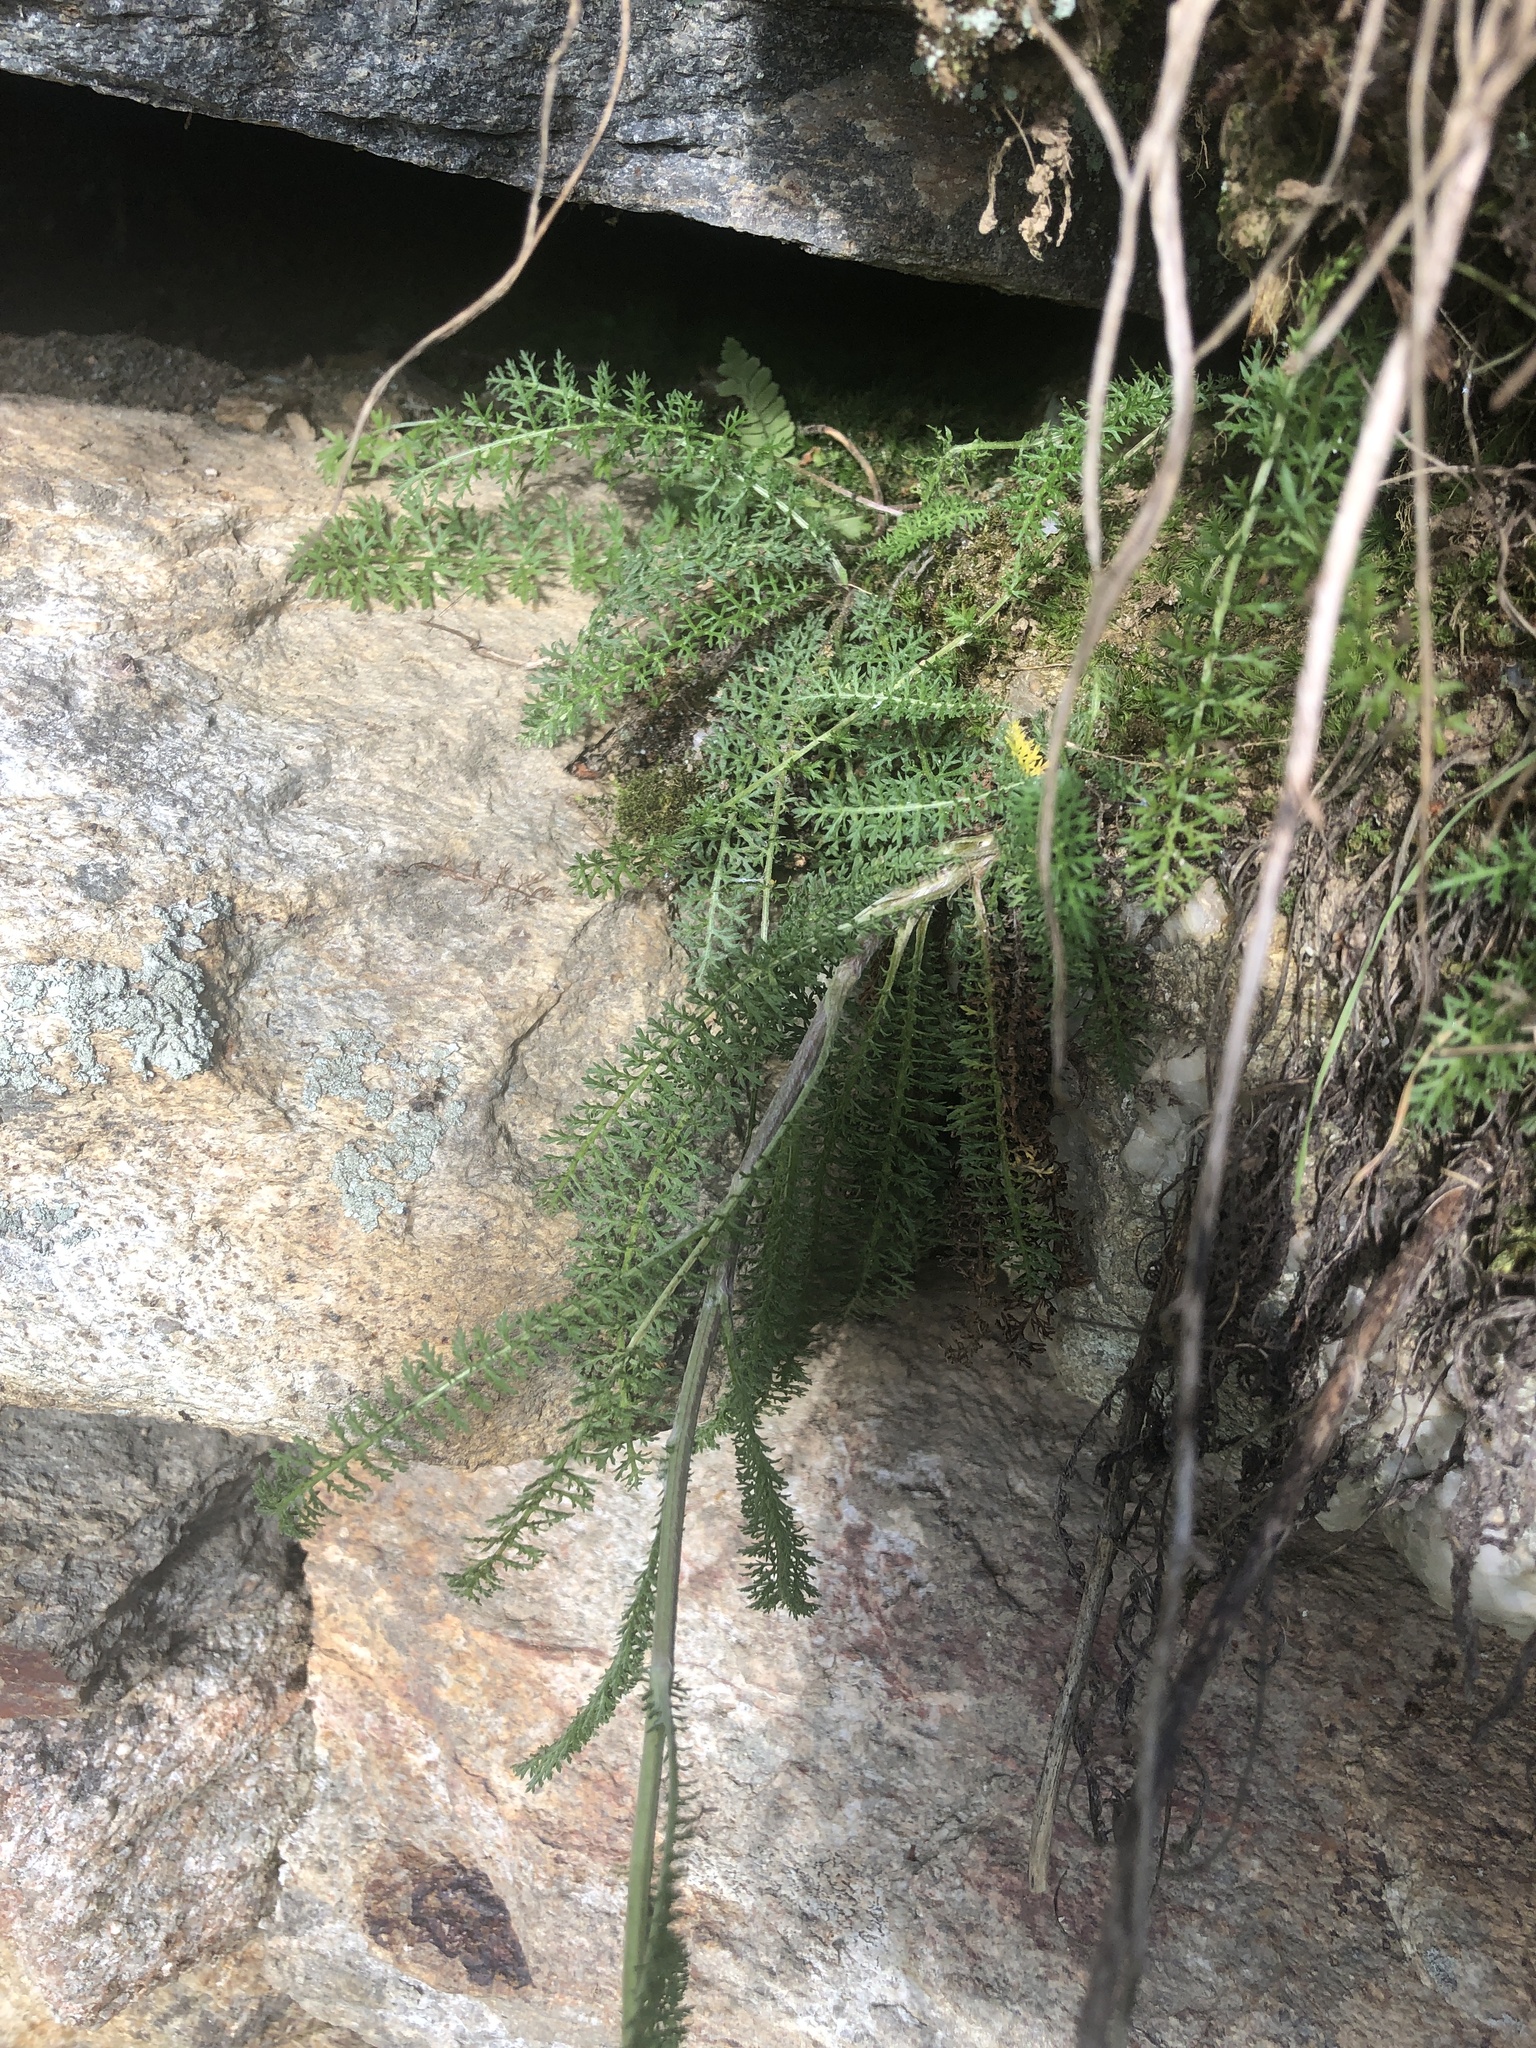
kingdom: Plantae
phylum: Tracheophyta
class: Magnoliopsida
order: Asterales
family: Asteraceae
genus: Achillea
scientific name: Achillea millefolium
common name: Yarrow
